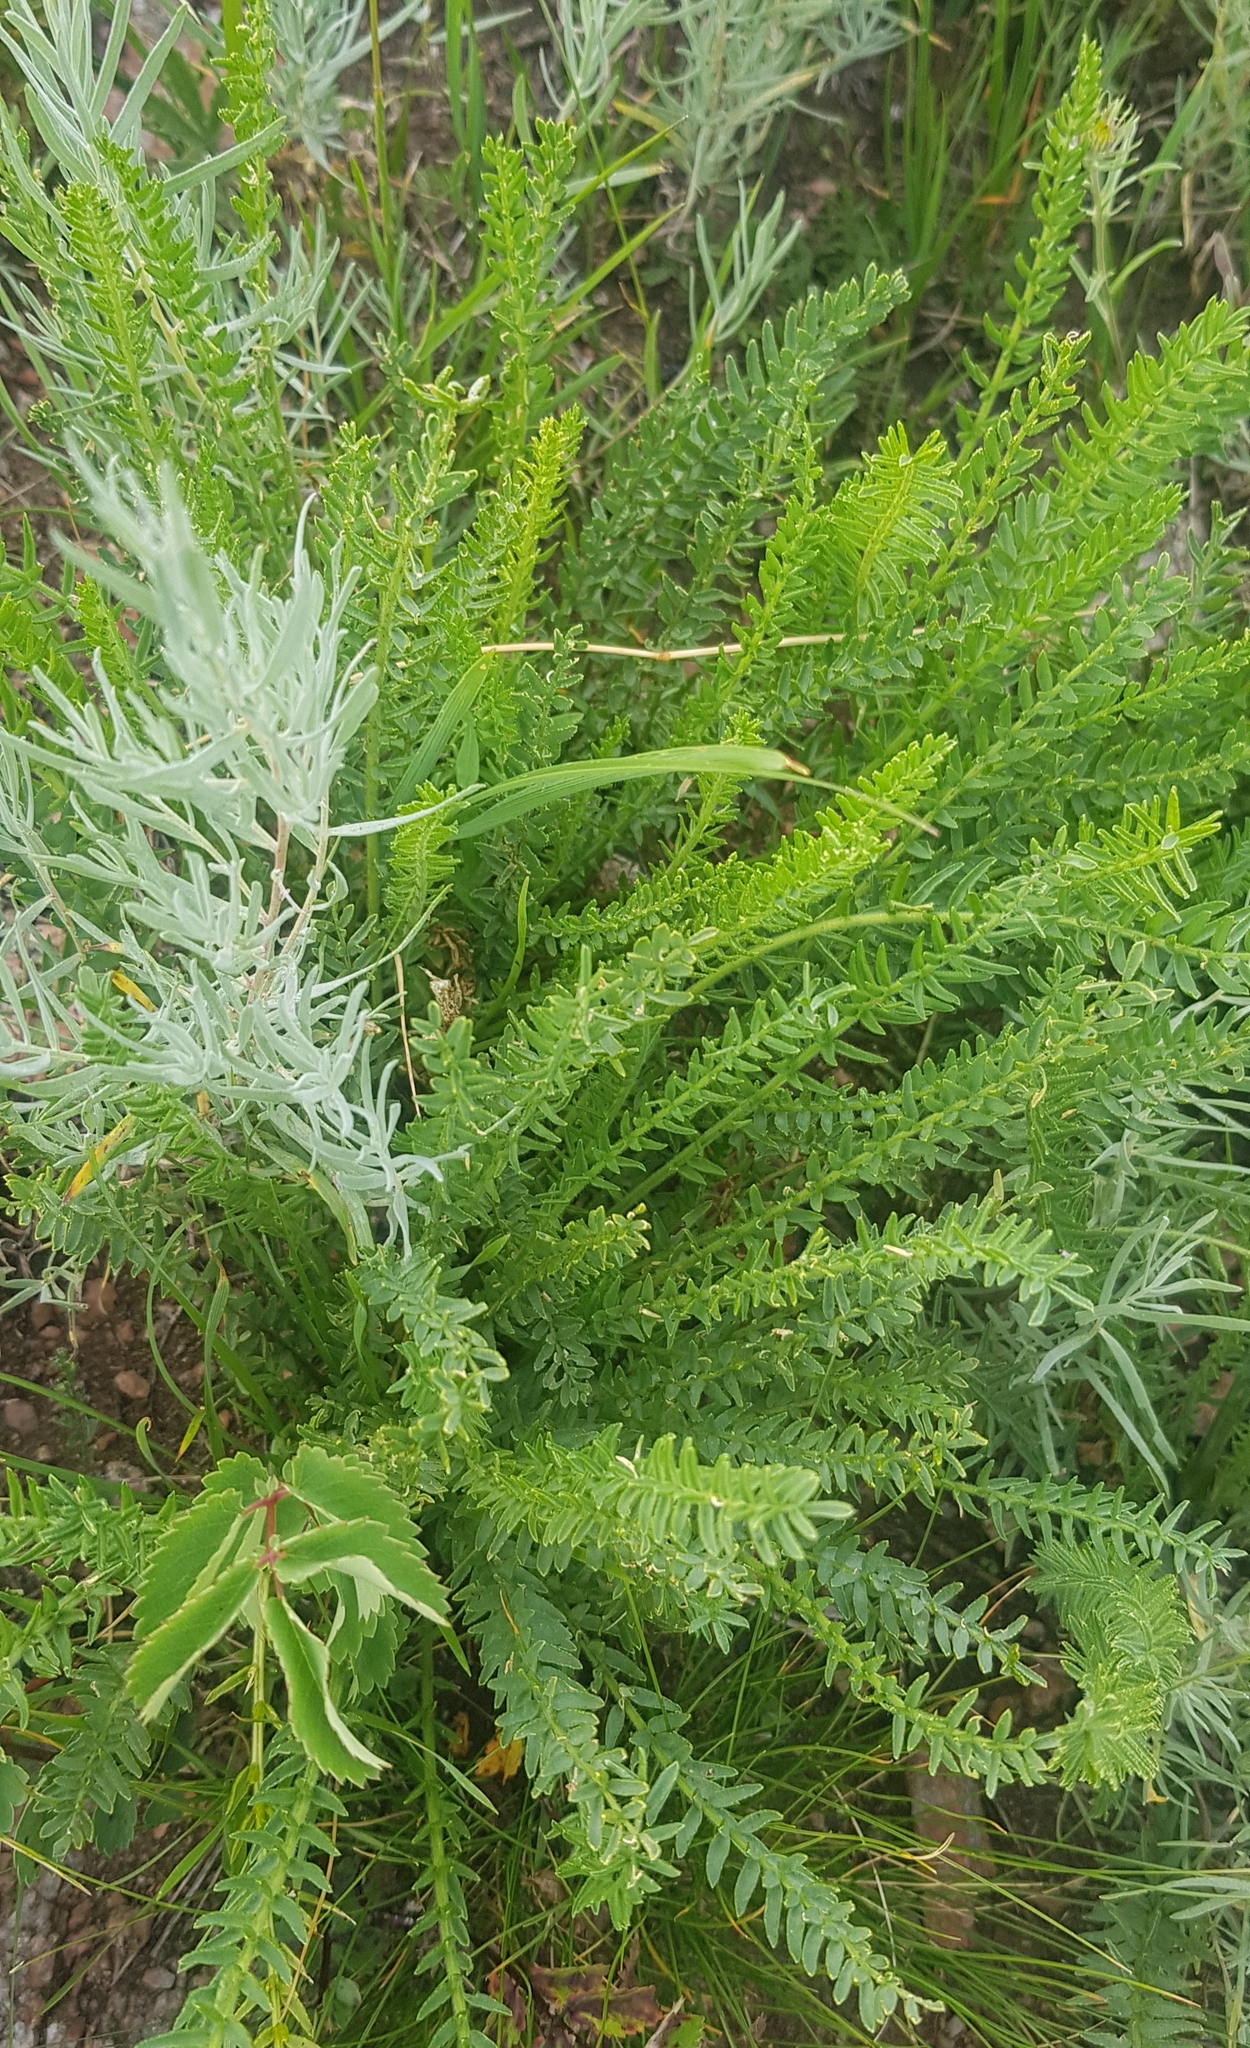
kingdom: Plantae
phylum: Tracheophyta
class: Magnoliopsida
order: Fabales
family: Fabaceae
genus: Oxytropis
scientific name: Oxytropis myriophylla
